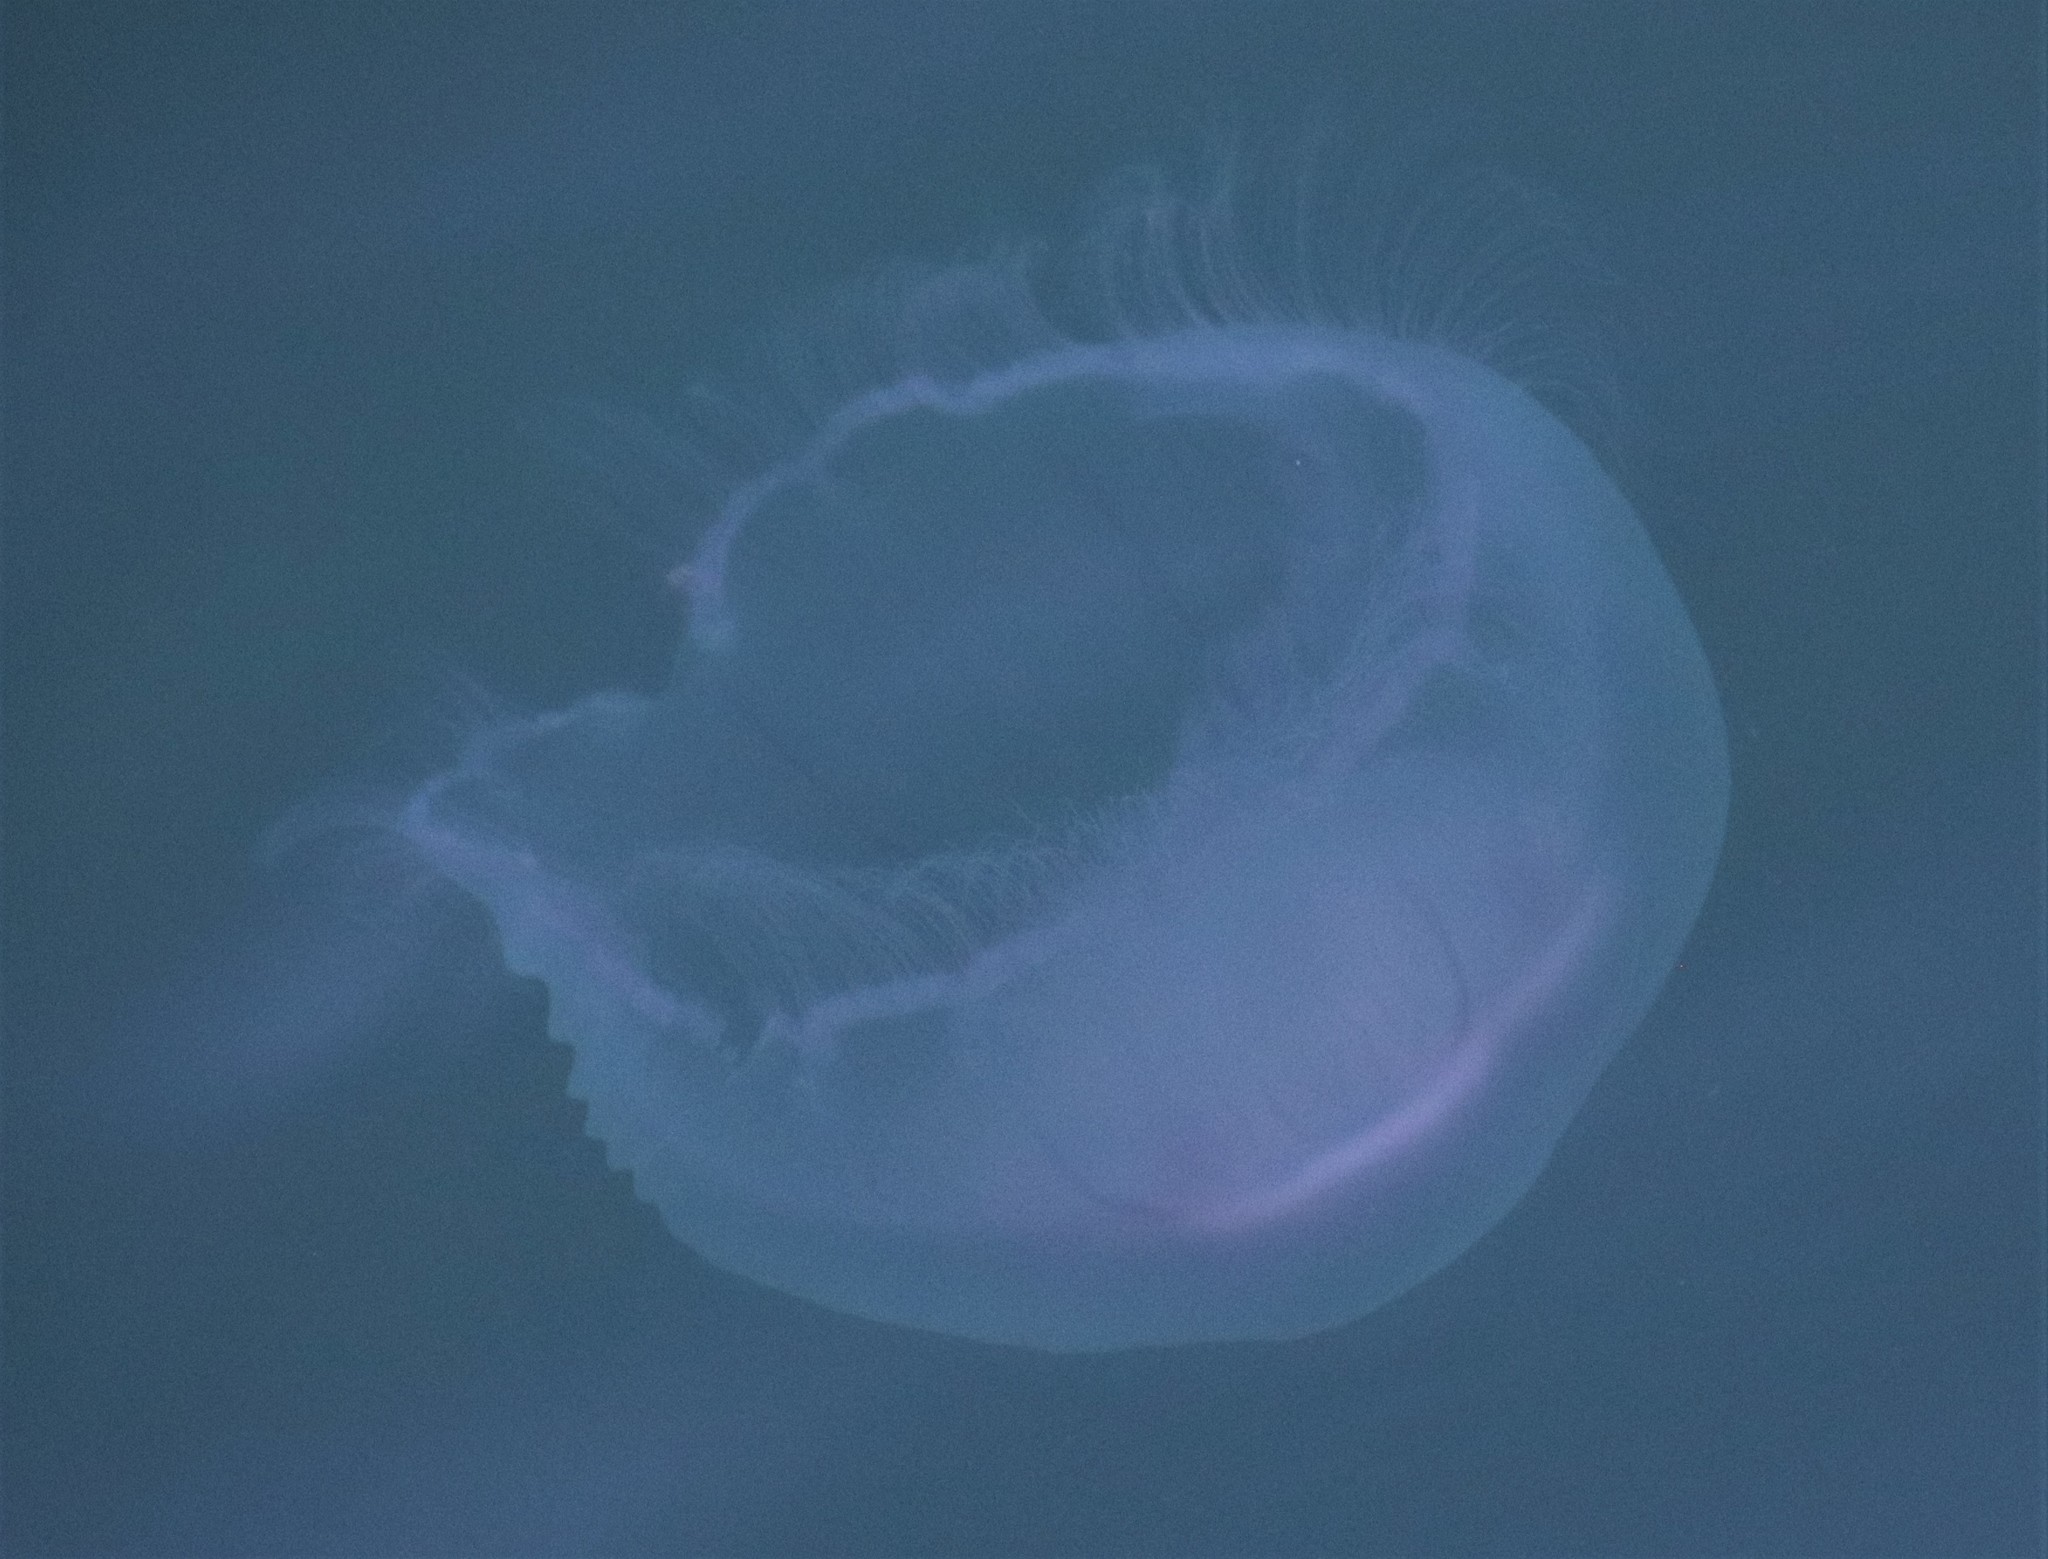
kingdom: Animalia
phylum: Cnidaria
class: Scyphozoa
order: Semaeostomeae
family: Ulmaridae
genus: Aurelia
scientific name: Aurelia aurita
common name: Moon jellyfish
